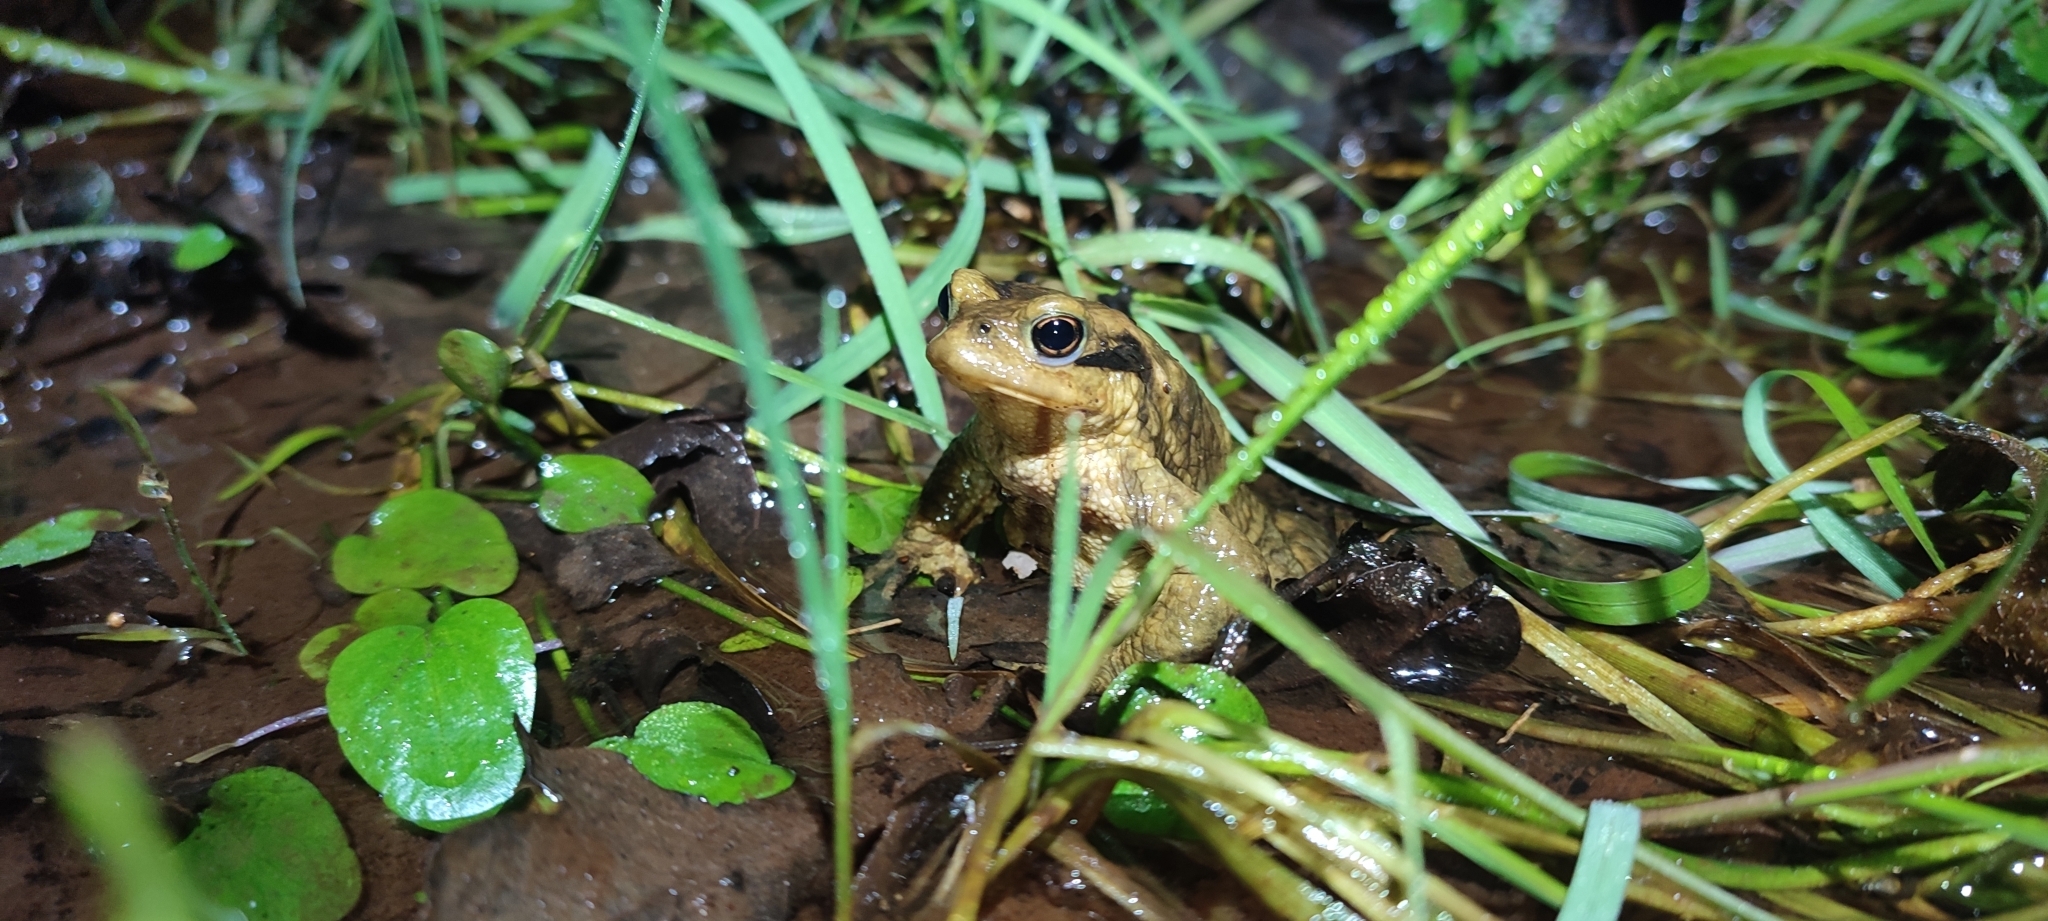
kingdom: Animalia
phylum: Chordata
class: Amphibia
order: Anura
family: Bufonidae
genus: Bufo
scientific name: Bufo spinosus
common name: Western common toad
